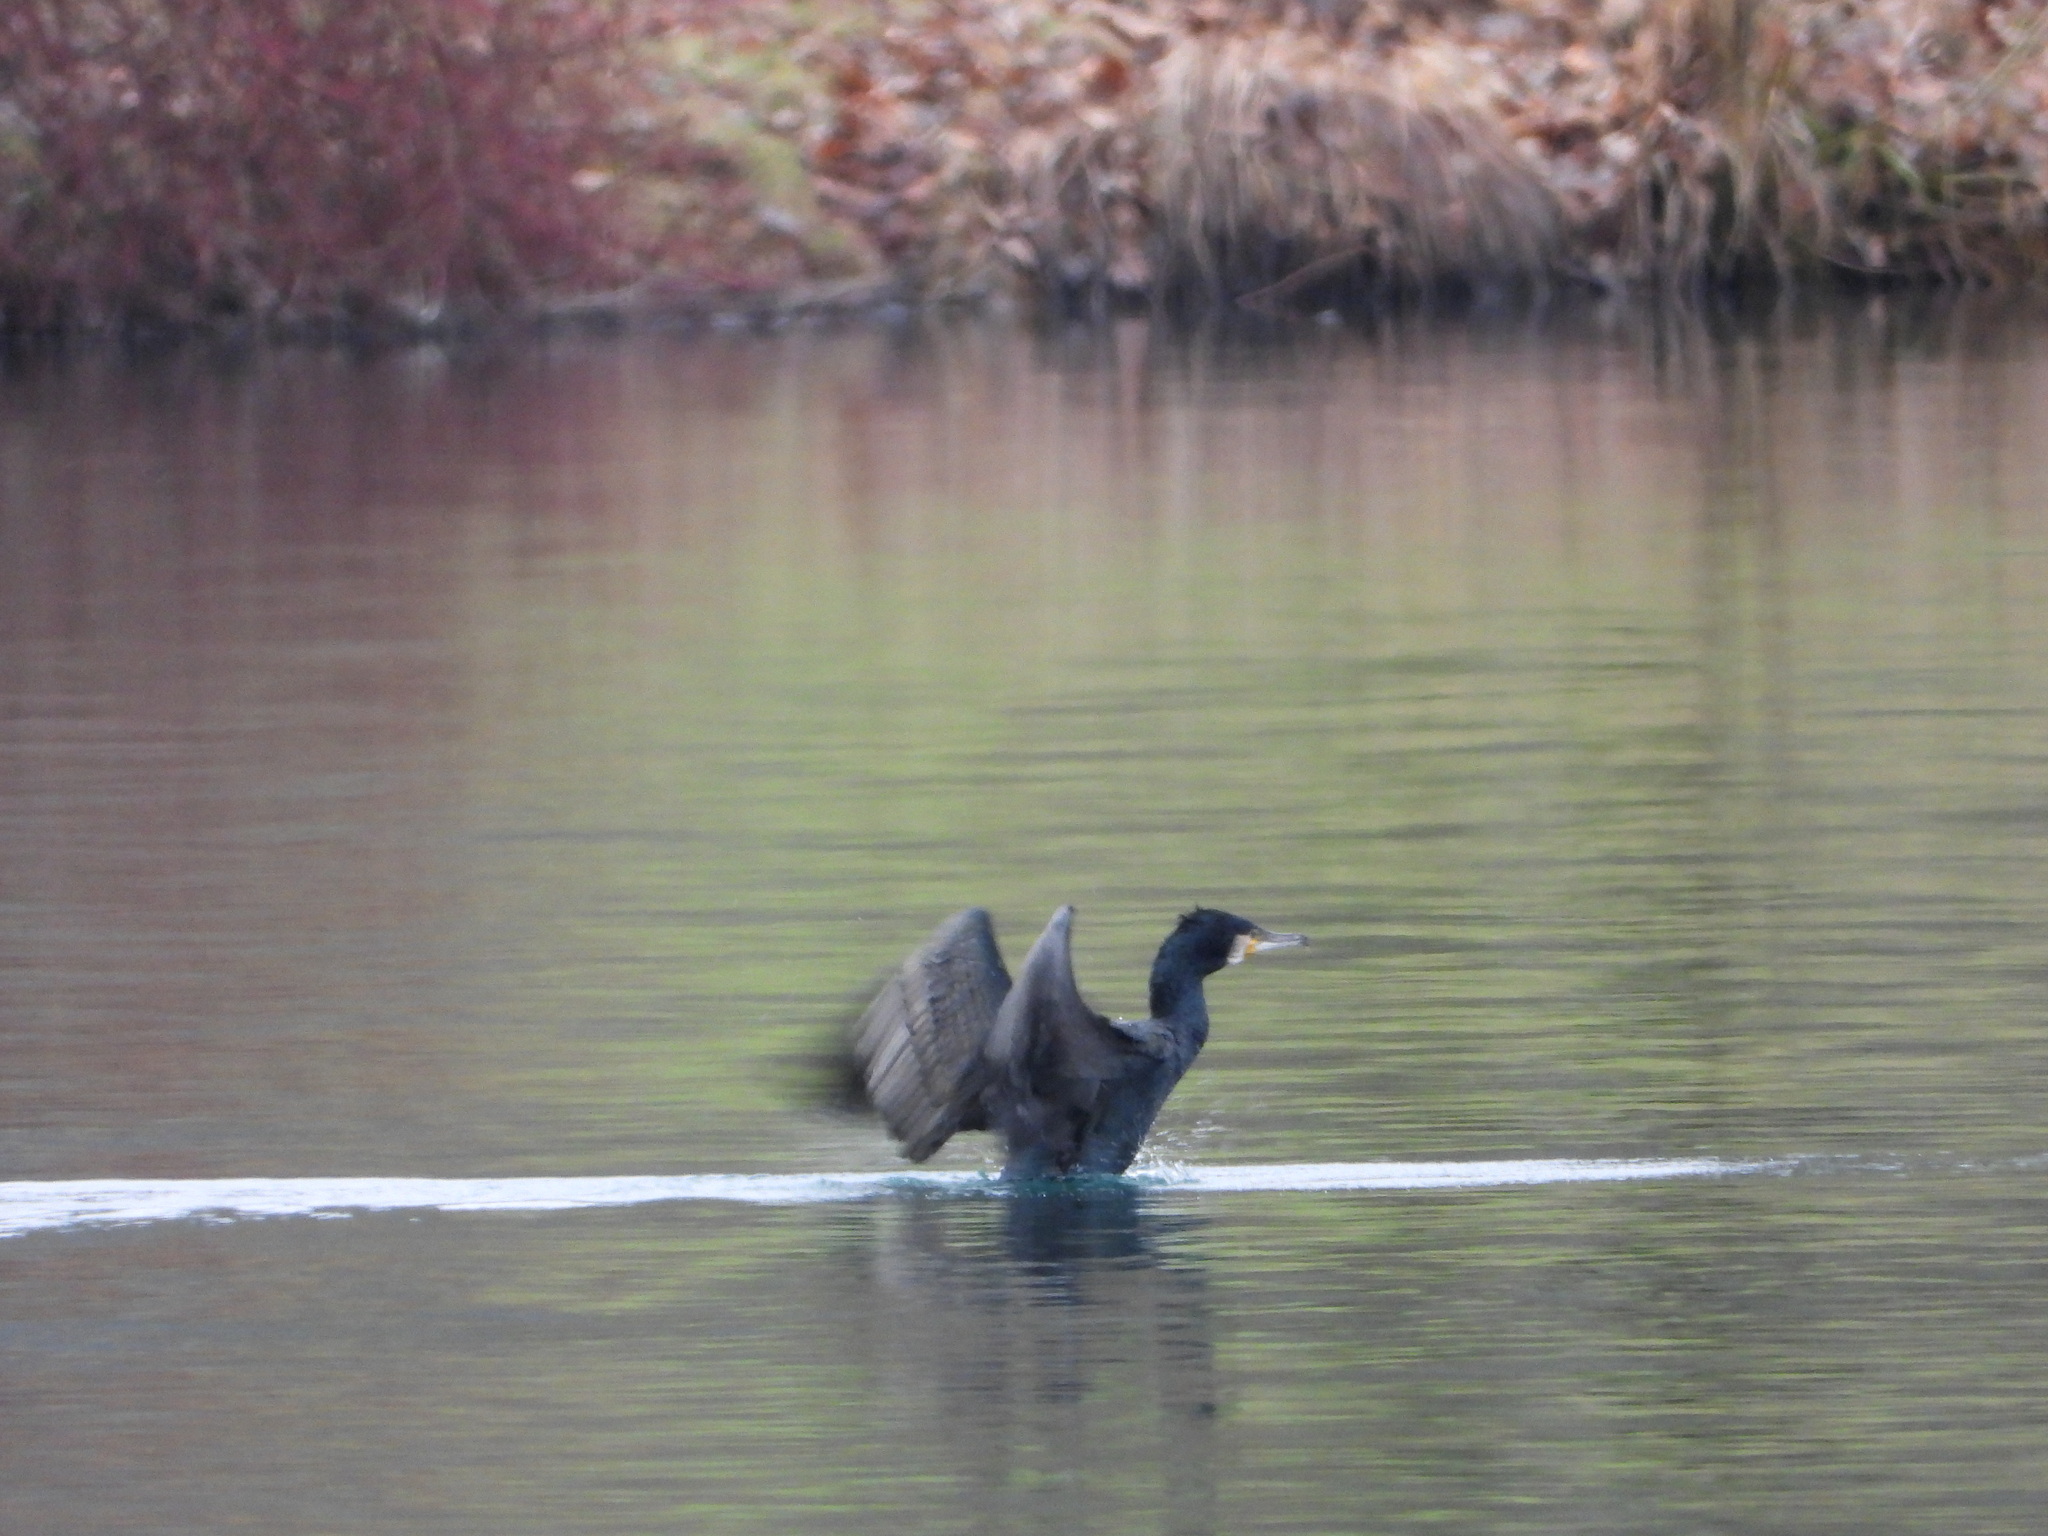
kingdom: Animalia
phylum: Chordata
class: Aves
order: Suliformes
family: Phalacrocoracidae
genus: Phalacrocorax
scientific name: Phalacrocorax carbo
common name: Great cormorant
